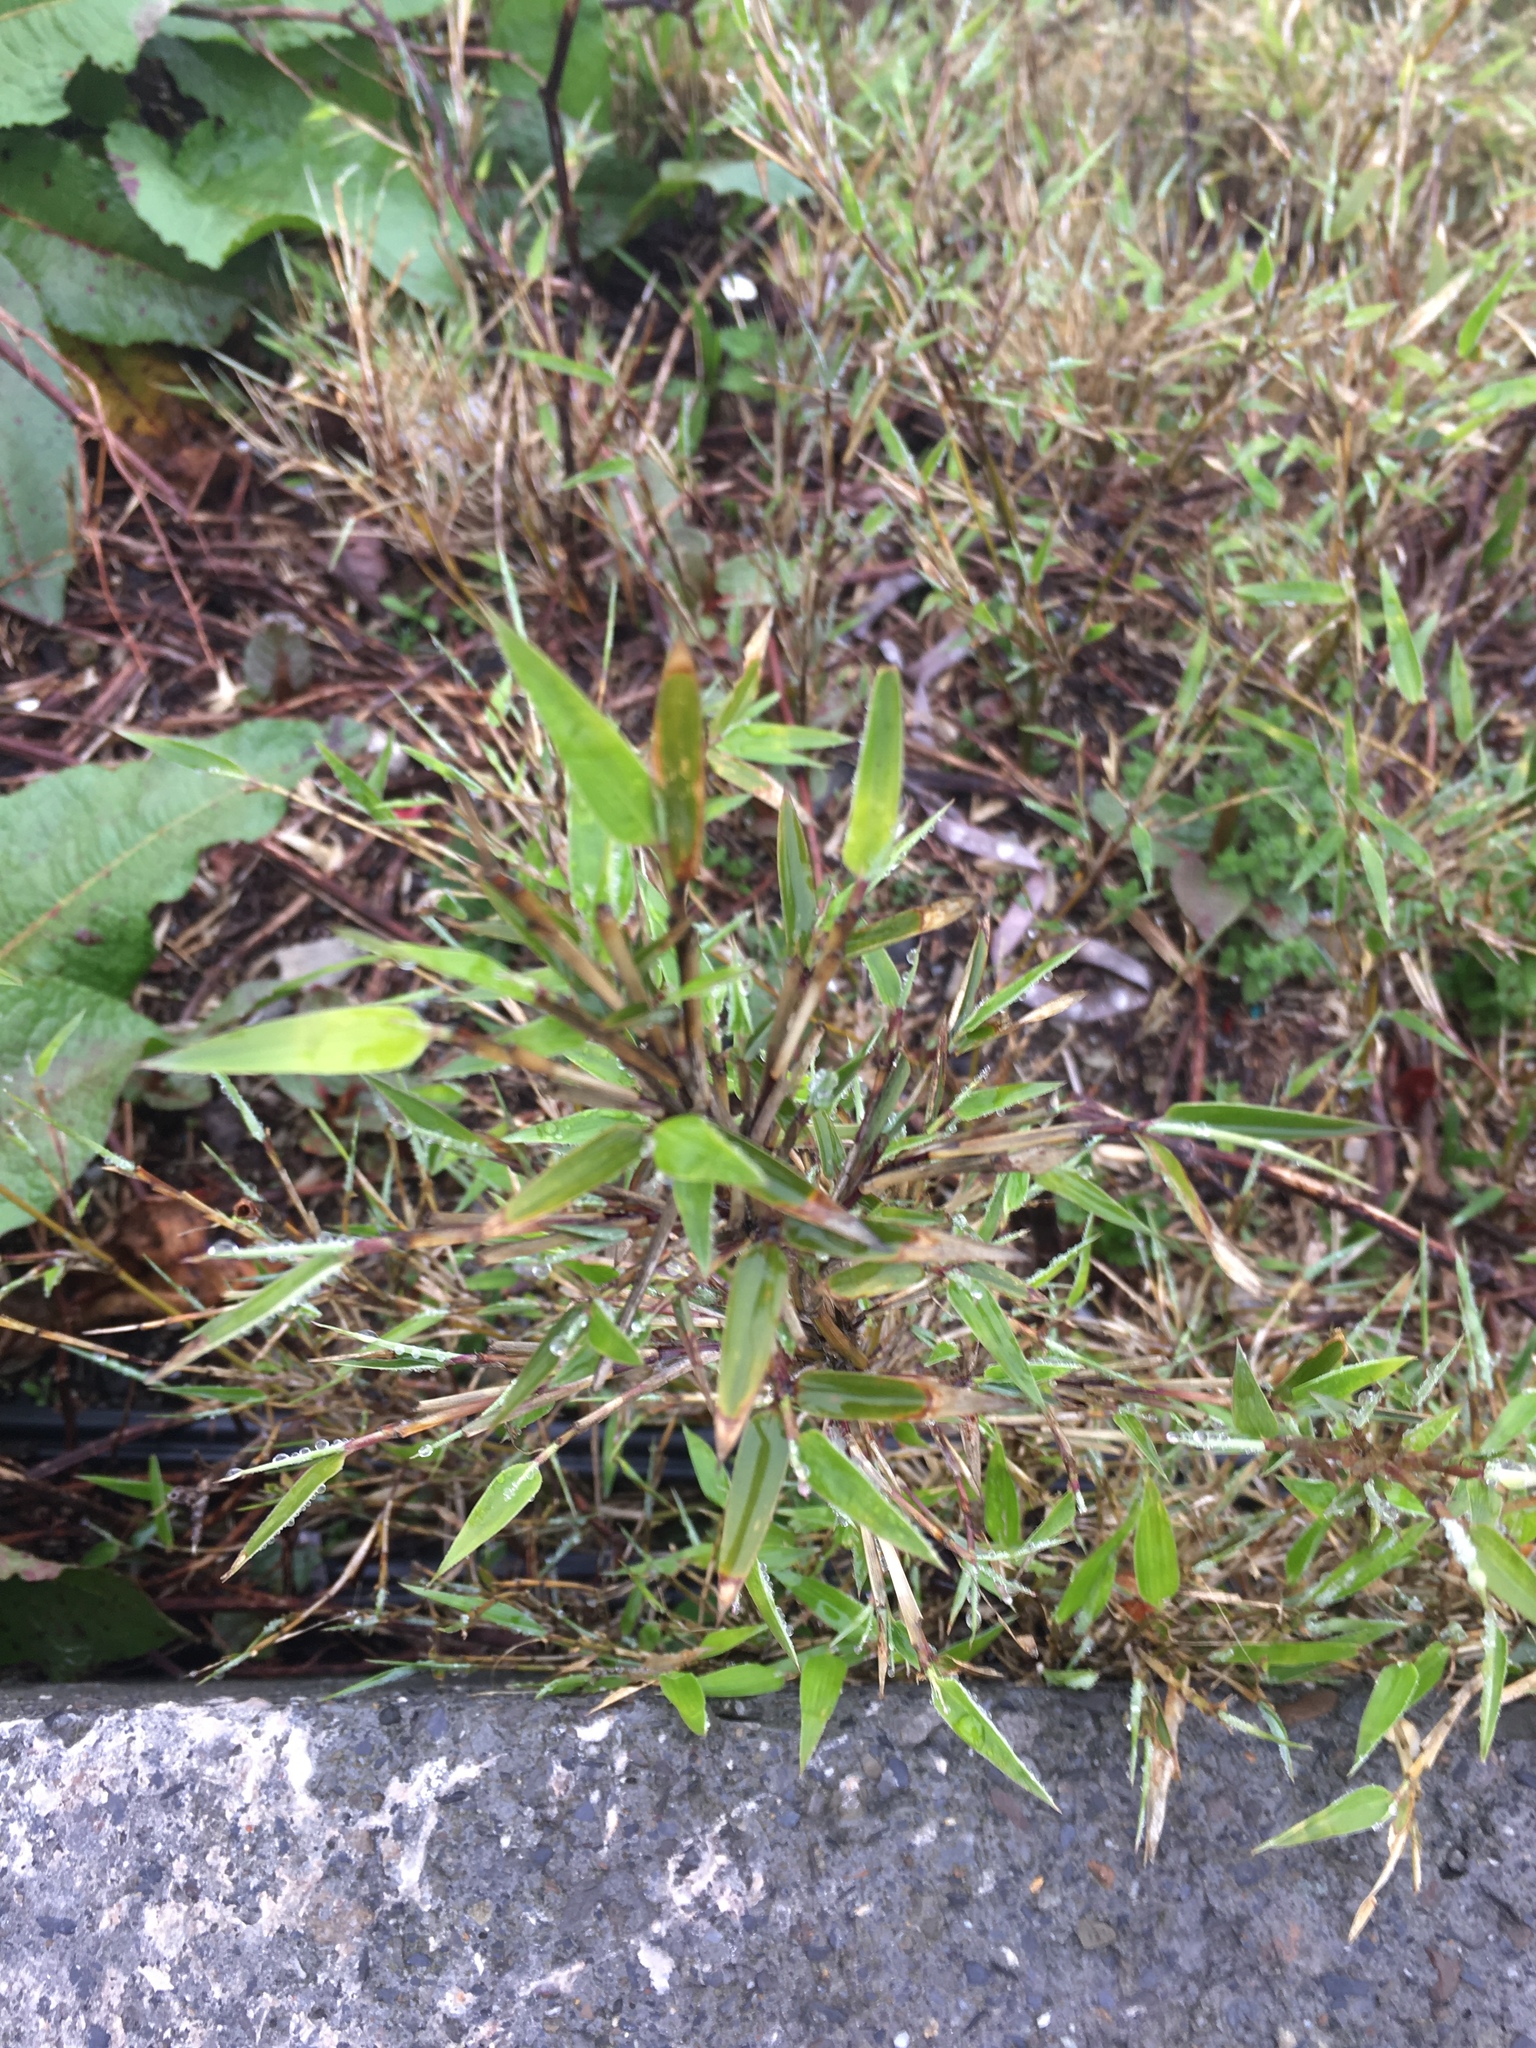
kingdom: Plantae
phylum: Tracheophyta
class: Liliopsida
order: Poales
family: Poaceae
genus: Yushania
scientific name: Yushania niitakayamensis
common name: Yushan cane
